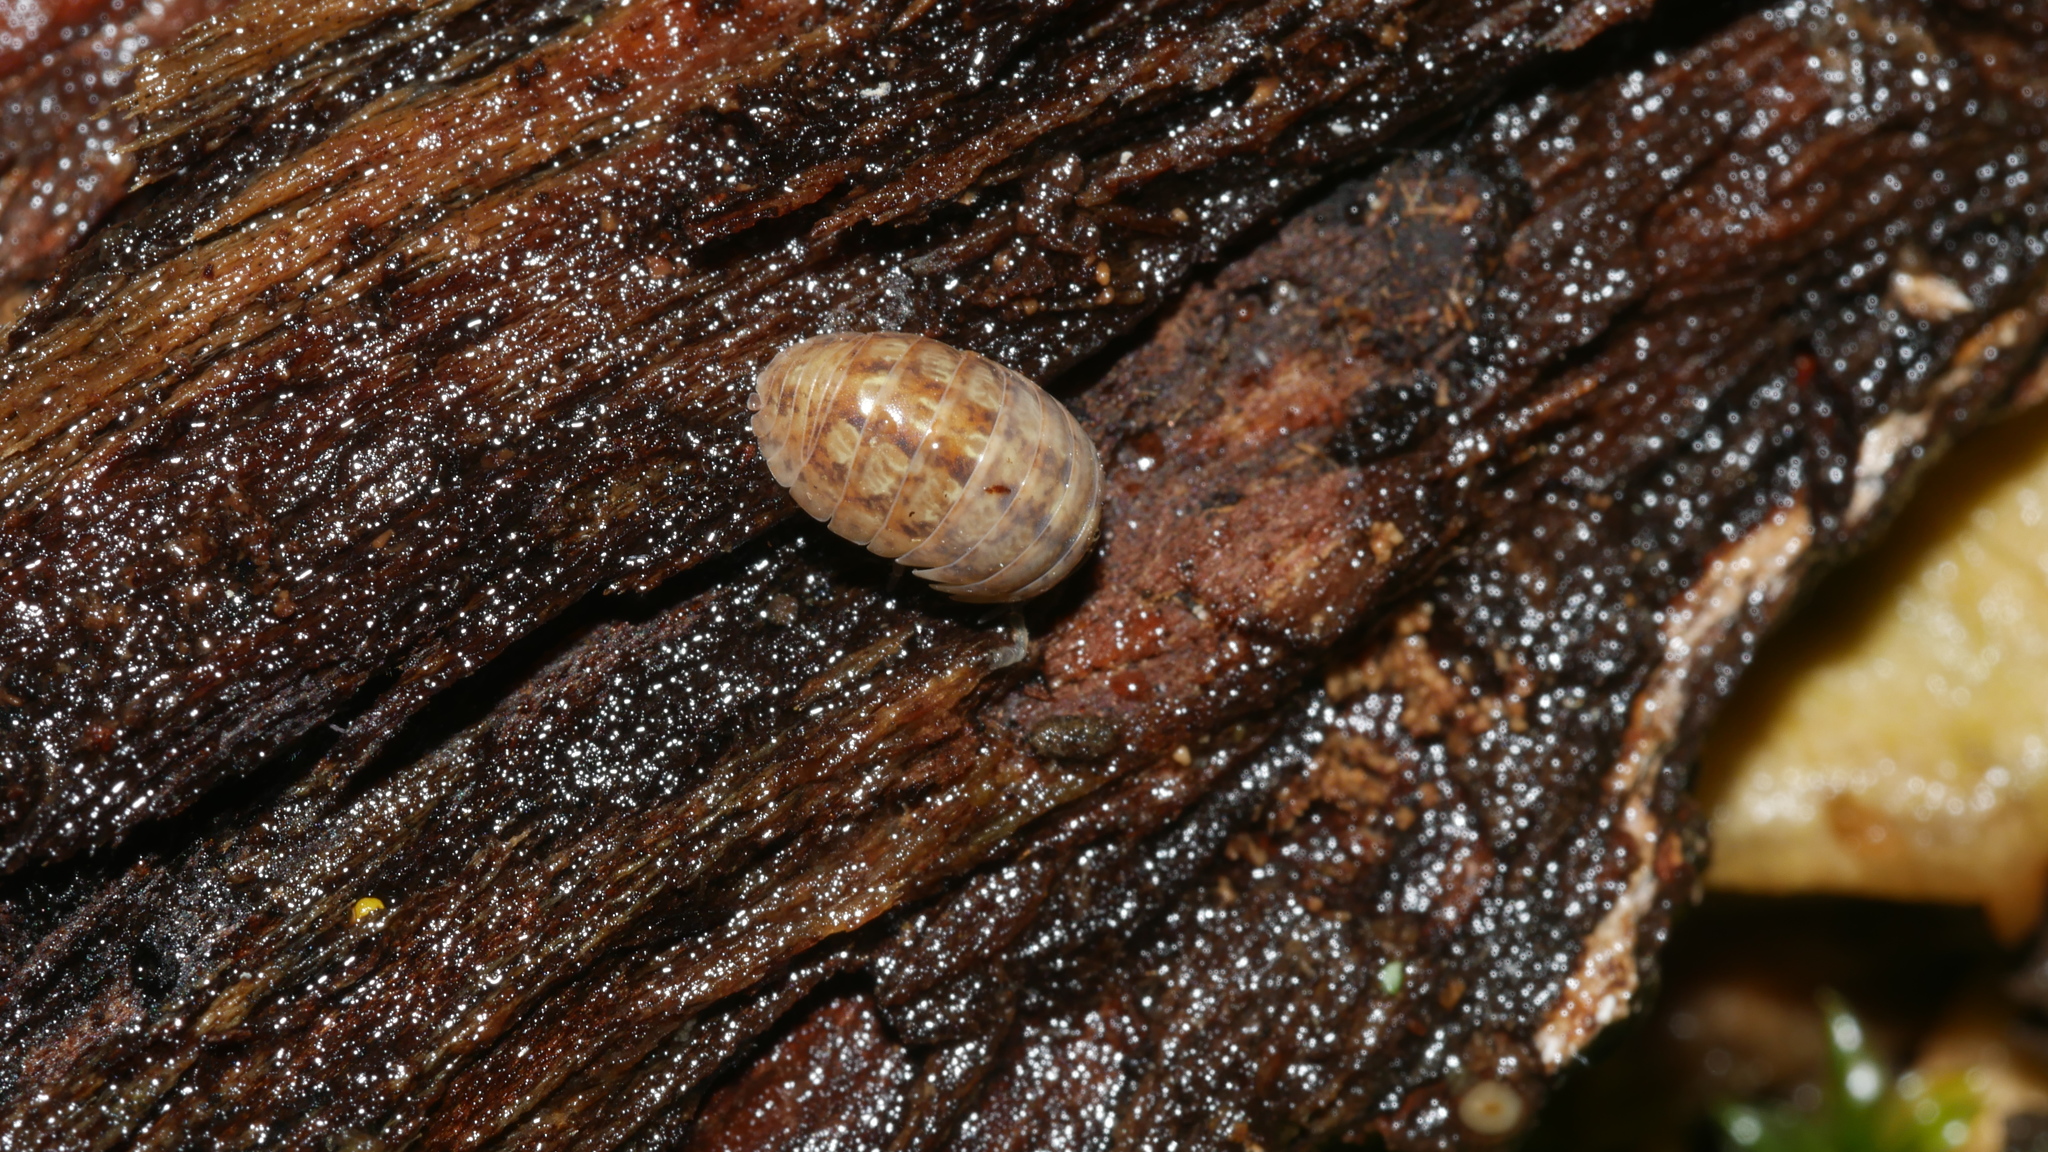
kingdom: Animalia
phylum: Arthropoda
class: Malacostraca
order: Isopoda
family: Armadillidiidae
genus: Armadillidium
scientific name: Armadillidium vulgare
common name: Common pill woodlouse
